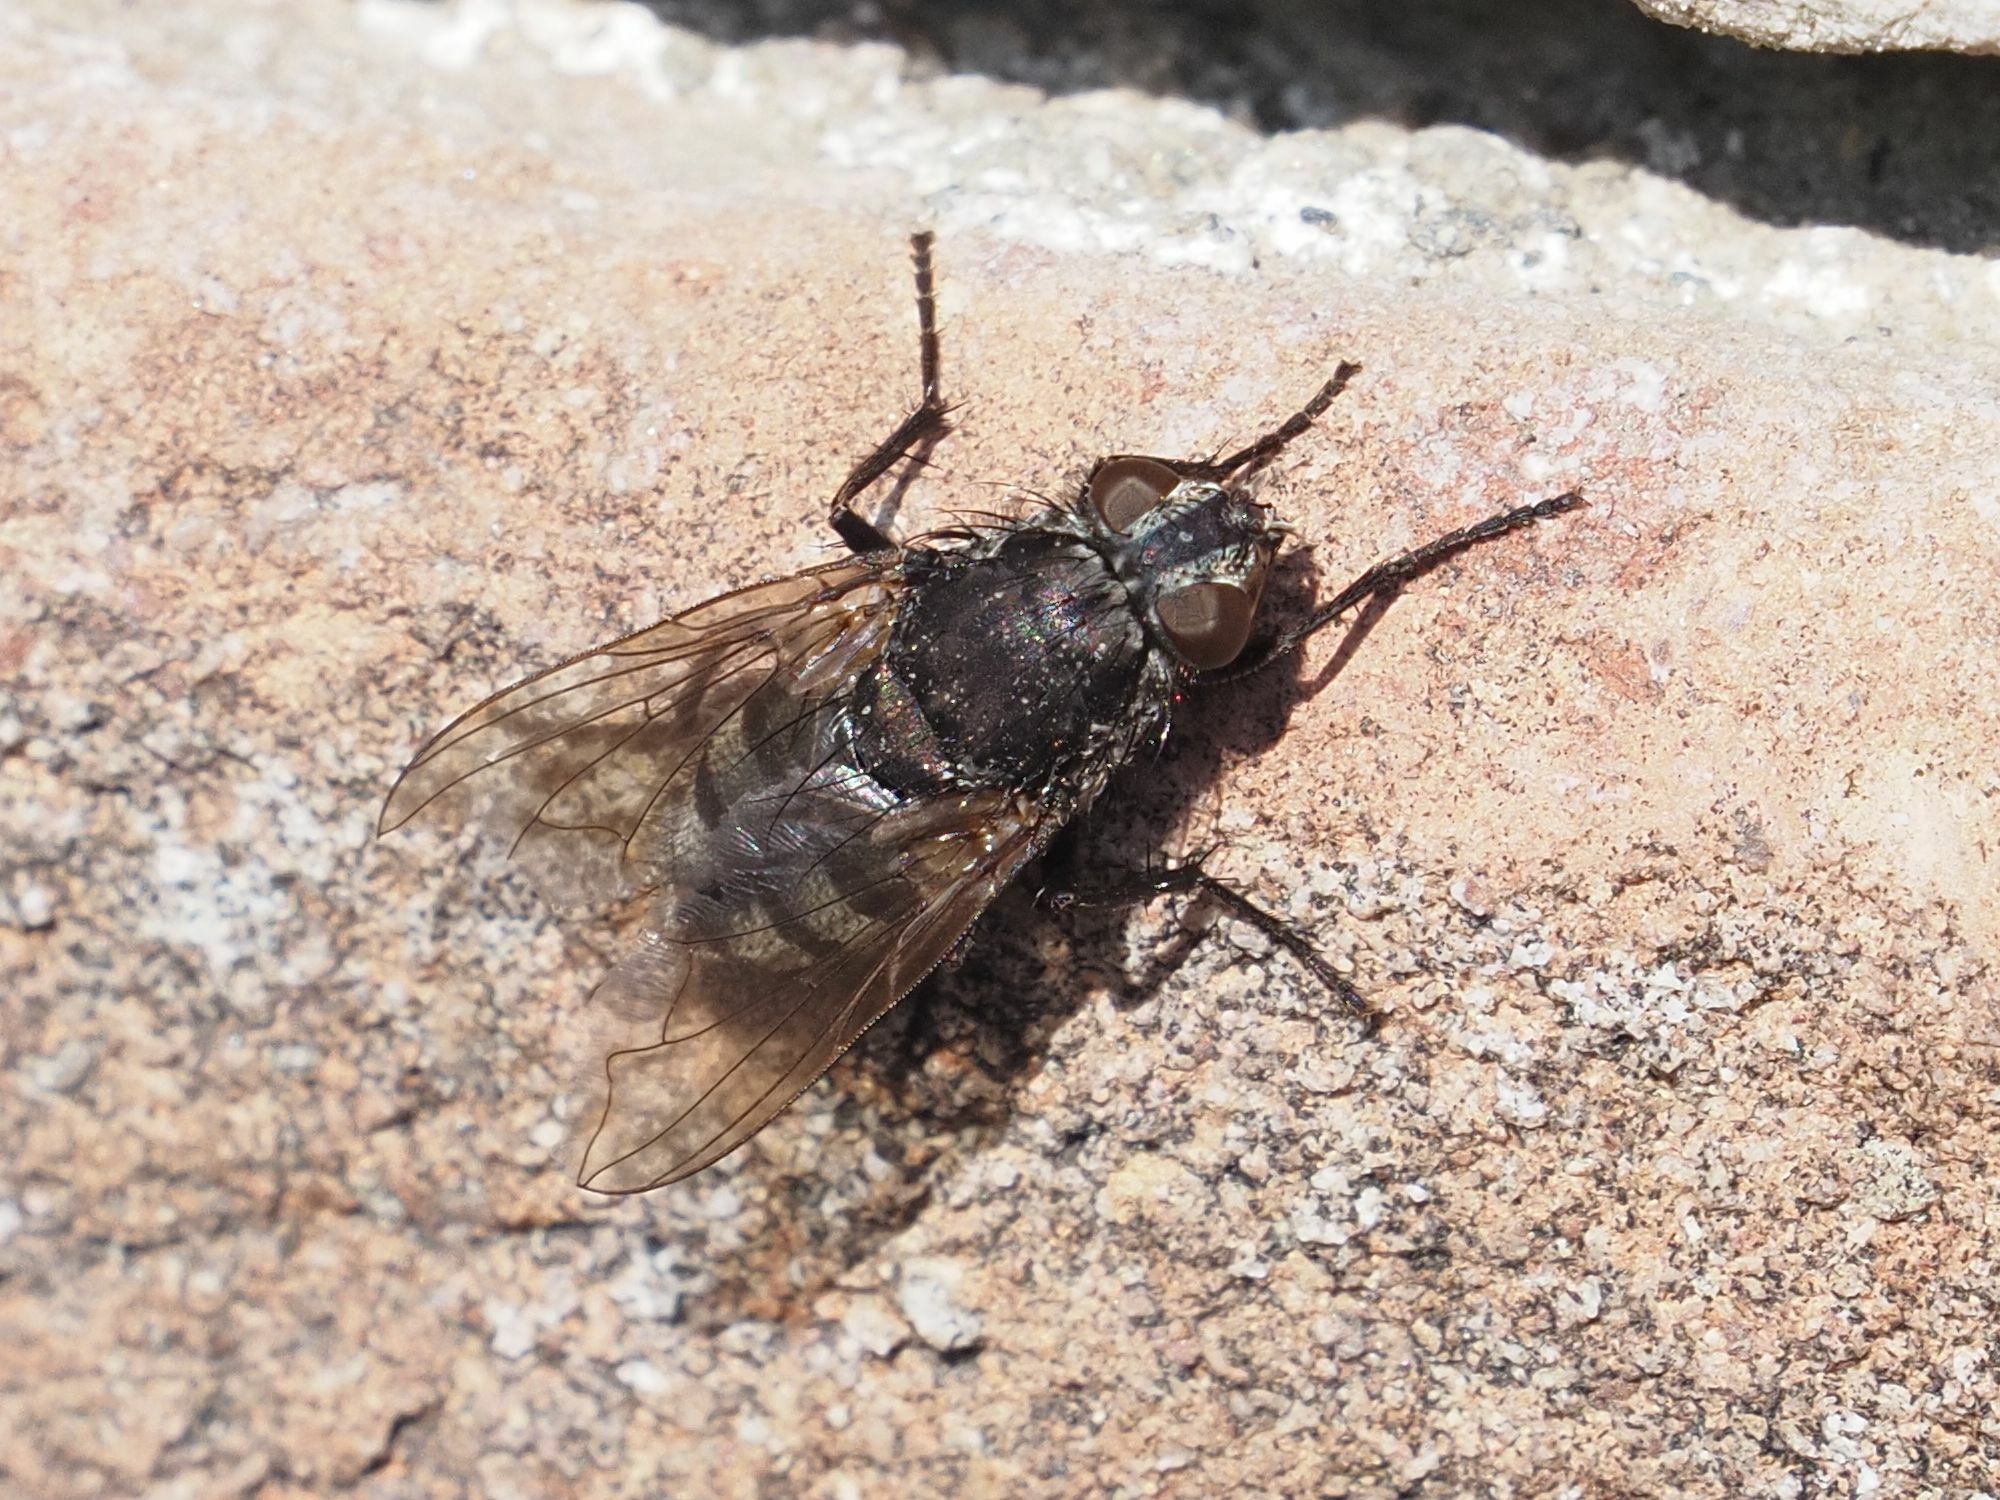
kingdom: Animalia
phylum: Arthropoda
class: Insecta
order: Diptera
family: Polleniidae
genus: Pollenia
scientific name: Pollenia vagabunda
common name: Vagabund cluster fly
